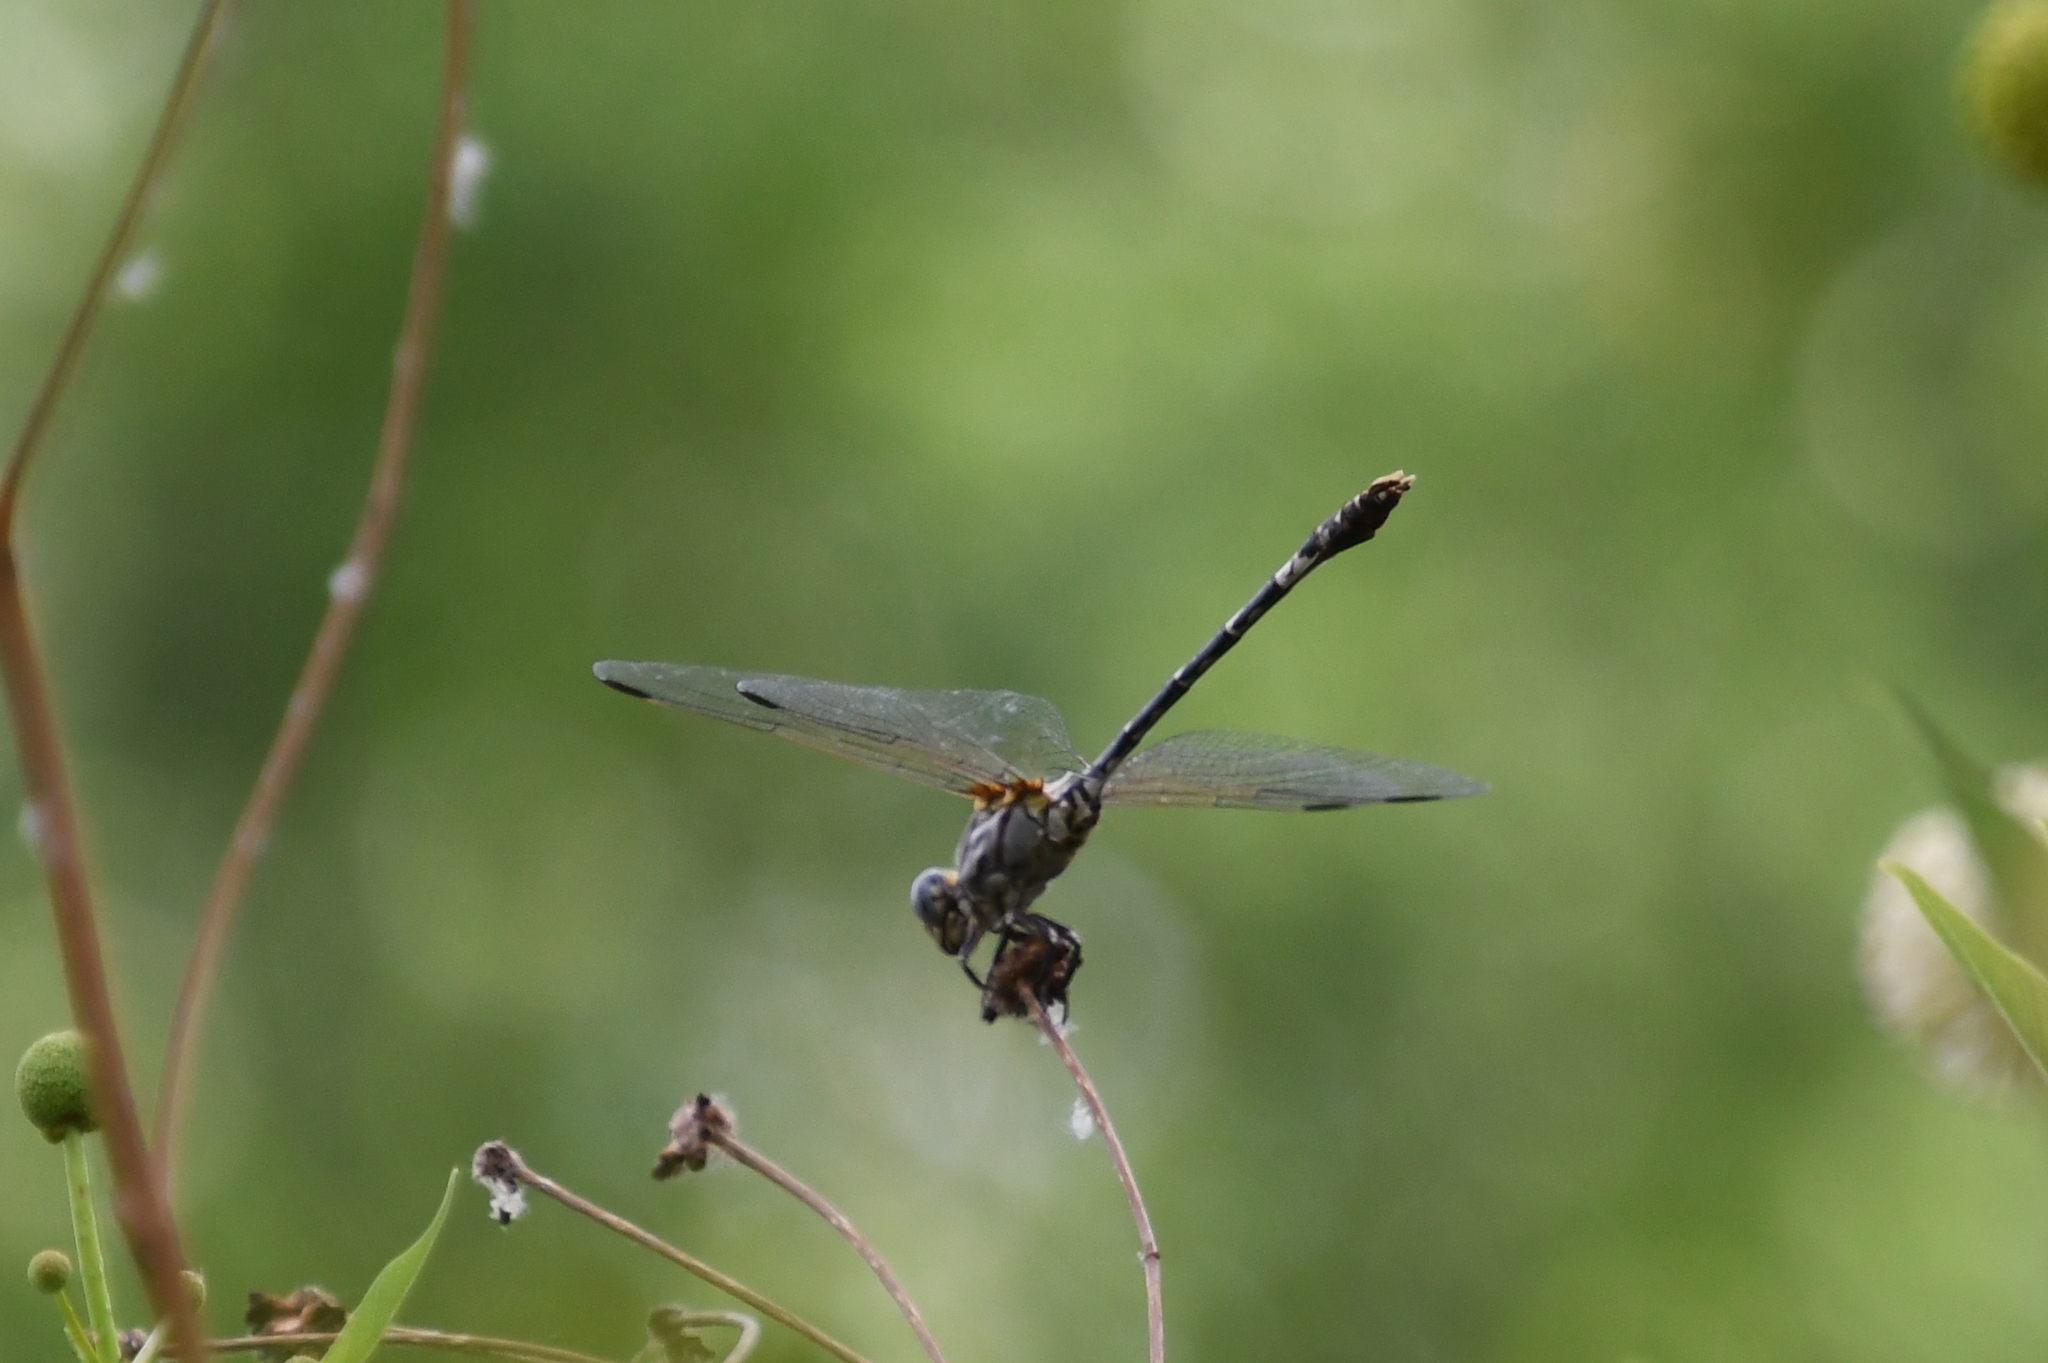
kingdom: Animalia
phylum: Arthropoda
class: Insecta
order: Odonata
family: Gomphidae
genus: Progomphus
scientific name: Progomphus borealis
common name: Gray sanddragon
